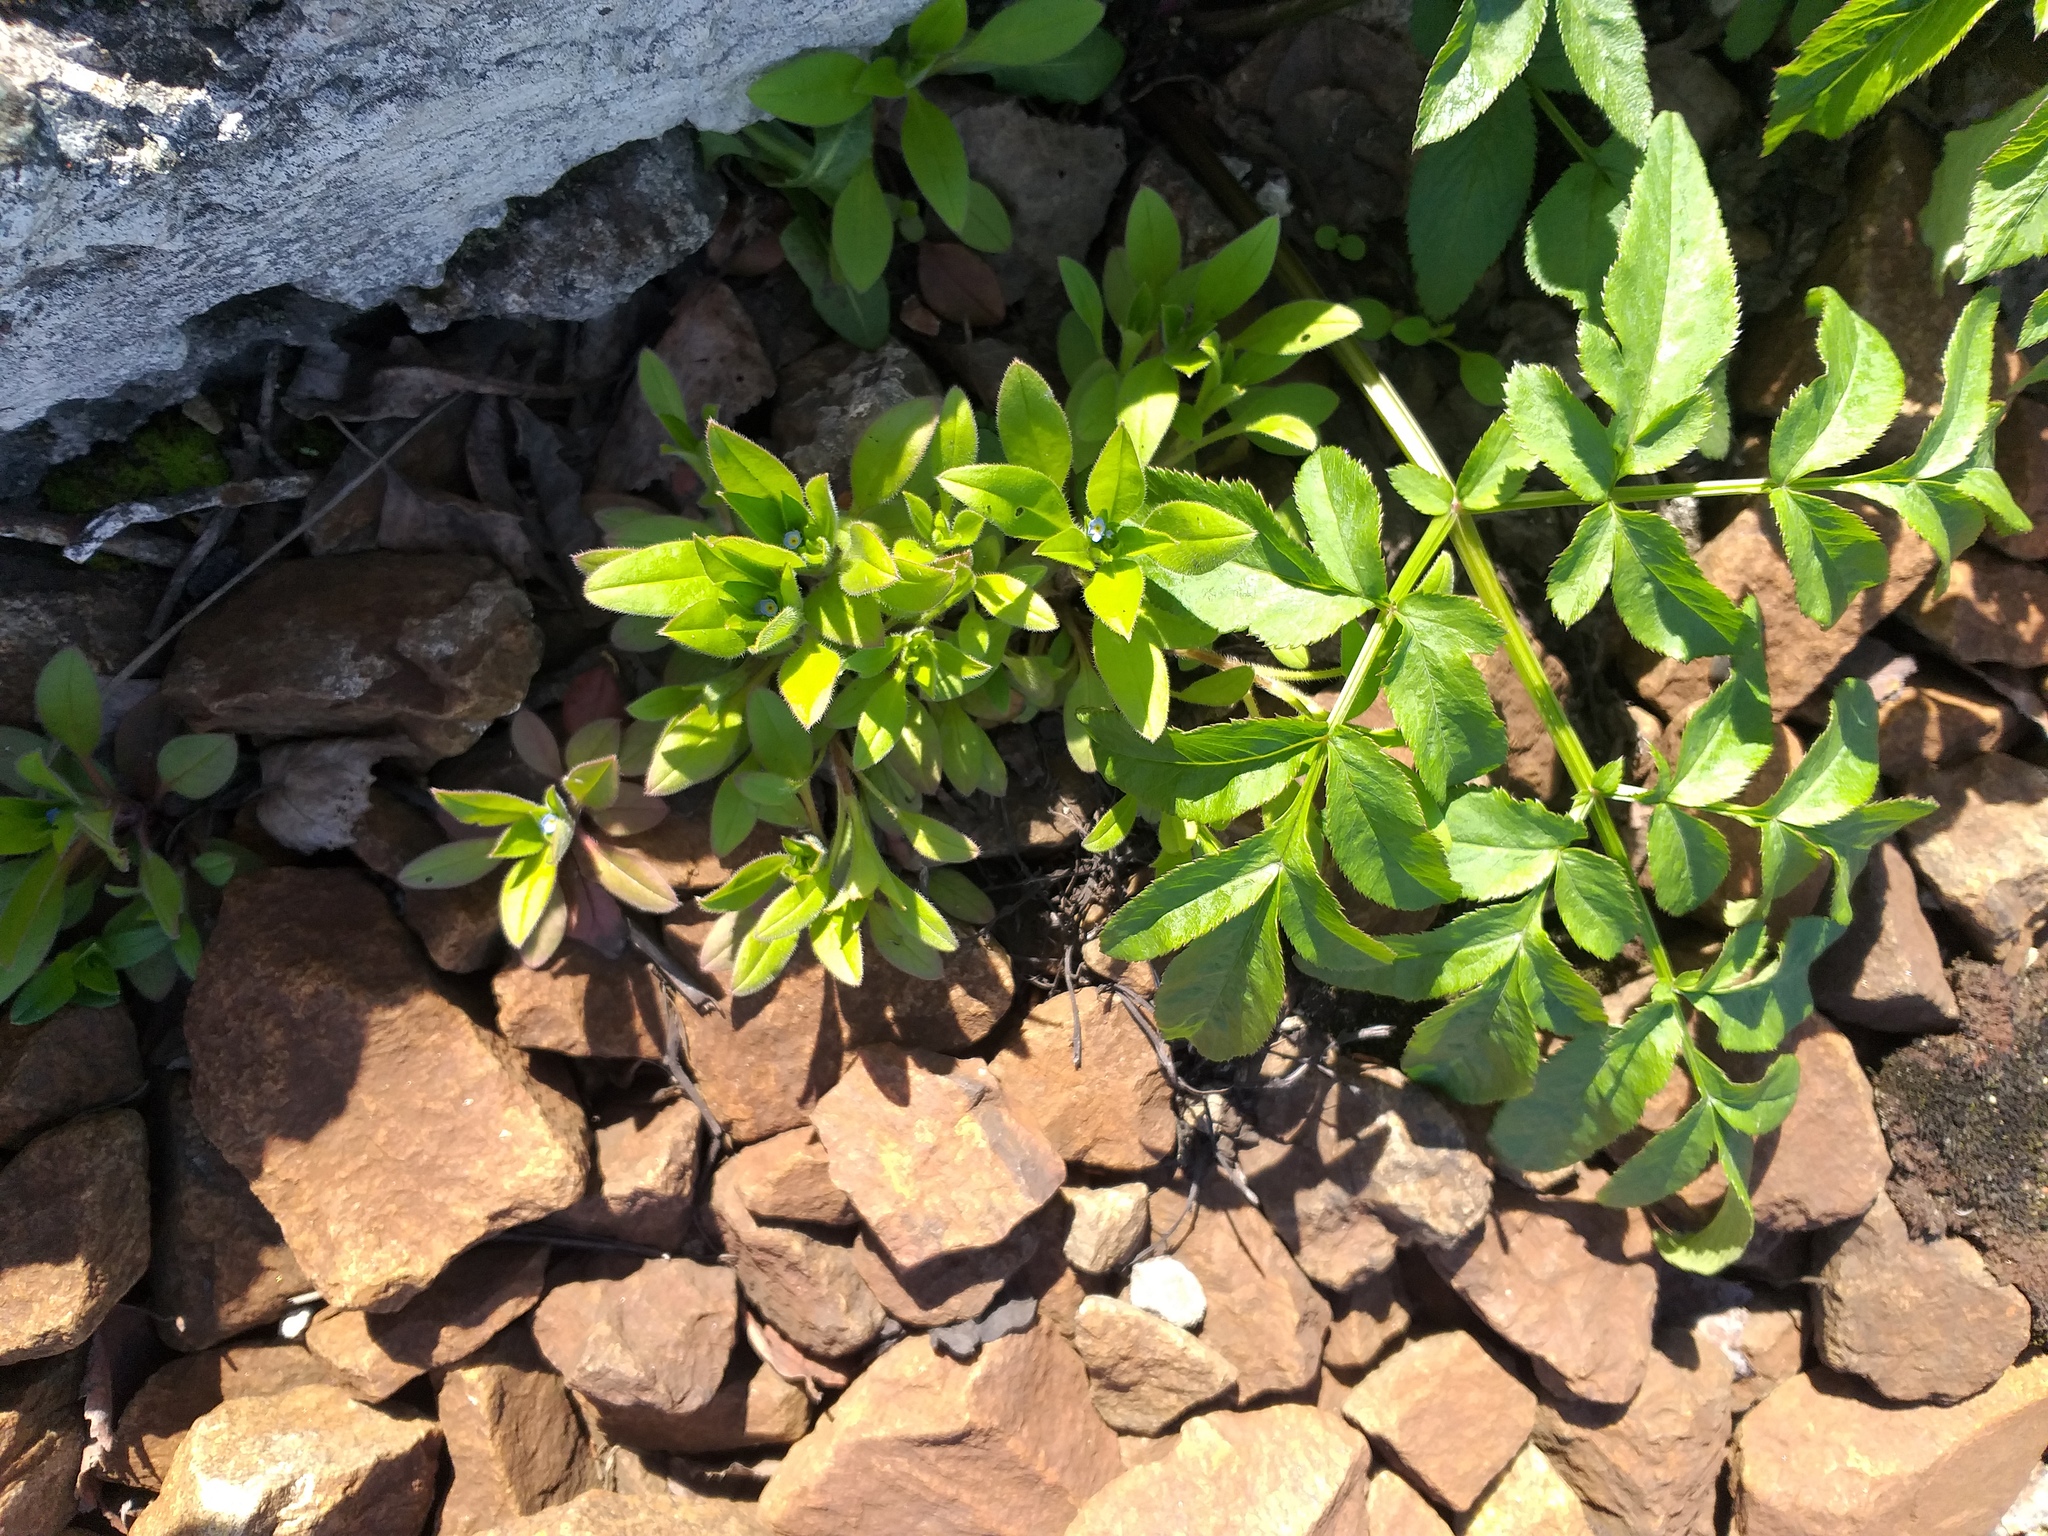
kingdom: Plantae
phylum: Tracheophyta
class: Magnoliopsida
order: Boraginales
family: Boraginaceae
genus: Myosotis
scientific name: Myosotis sparsiflora
